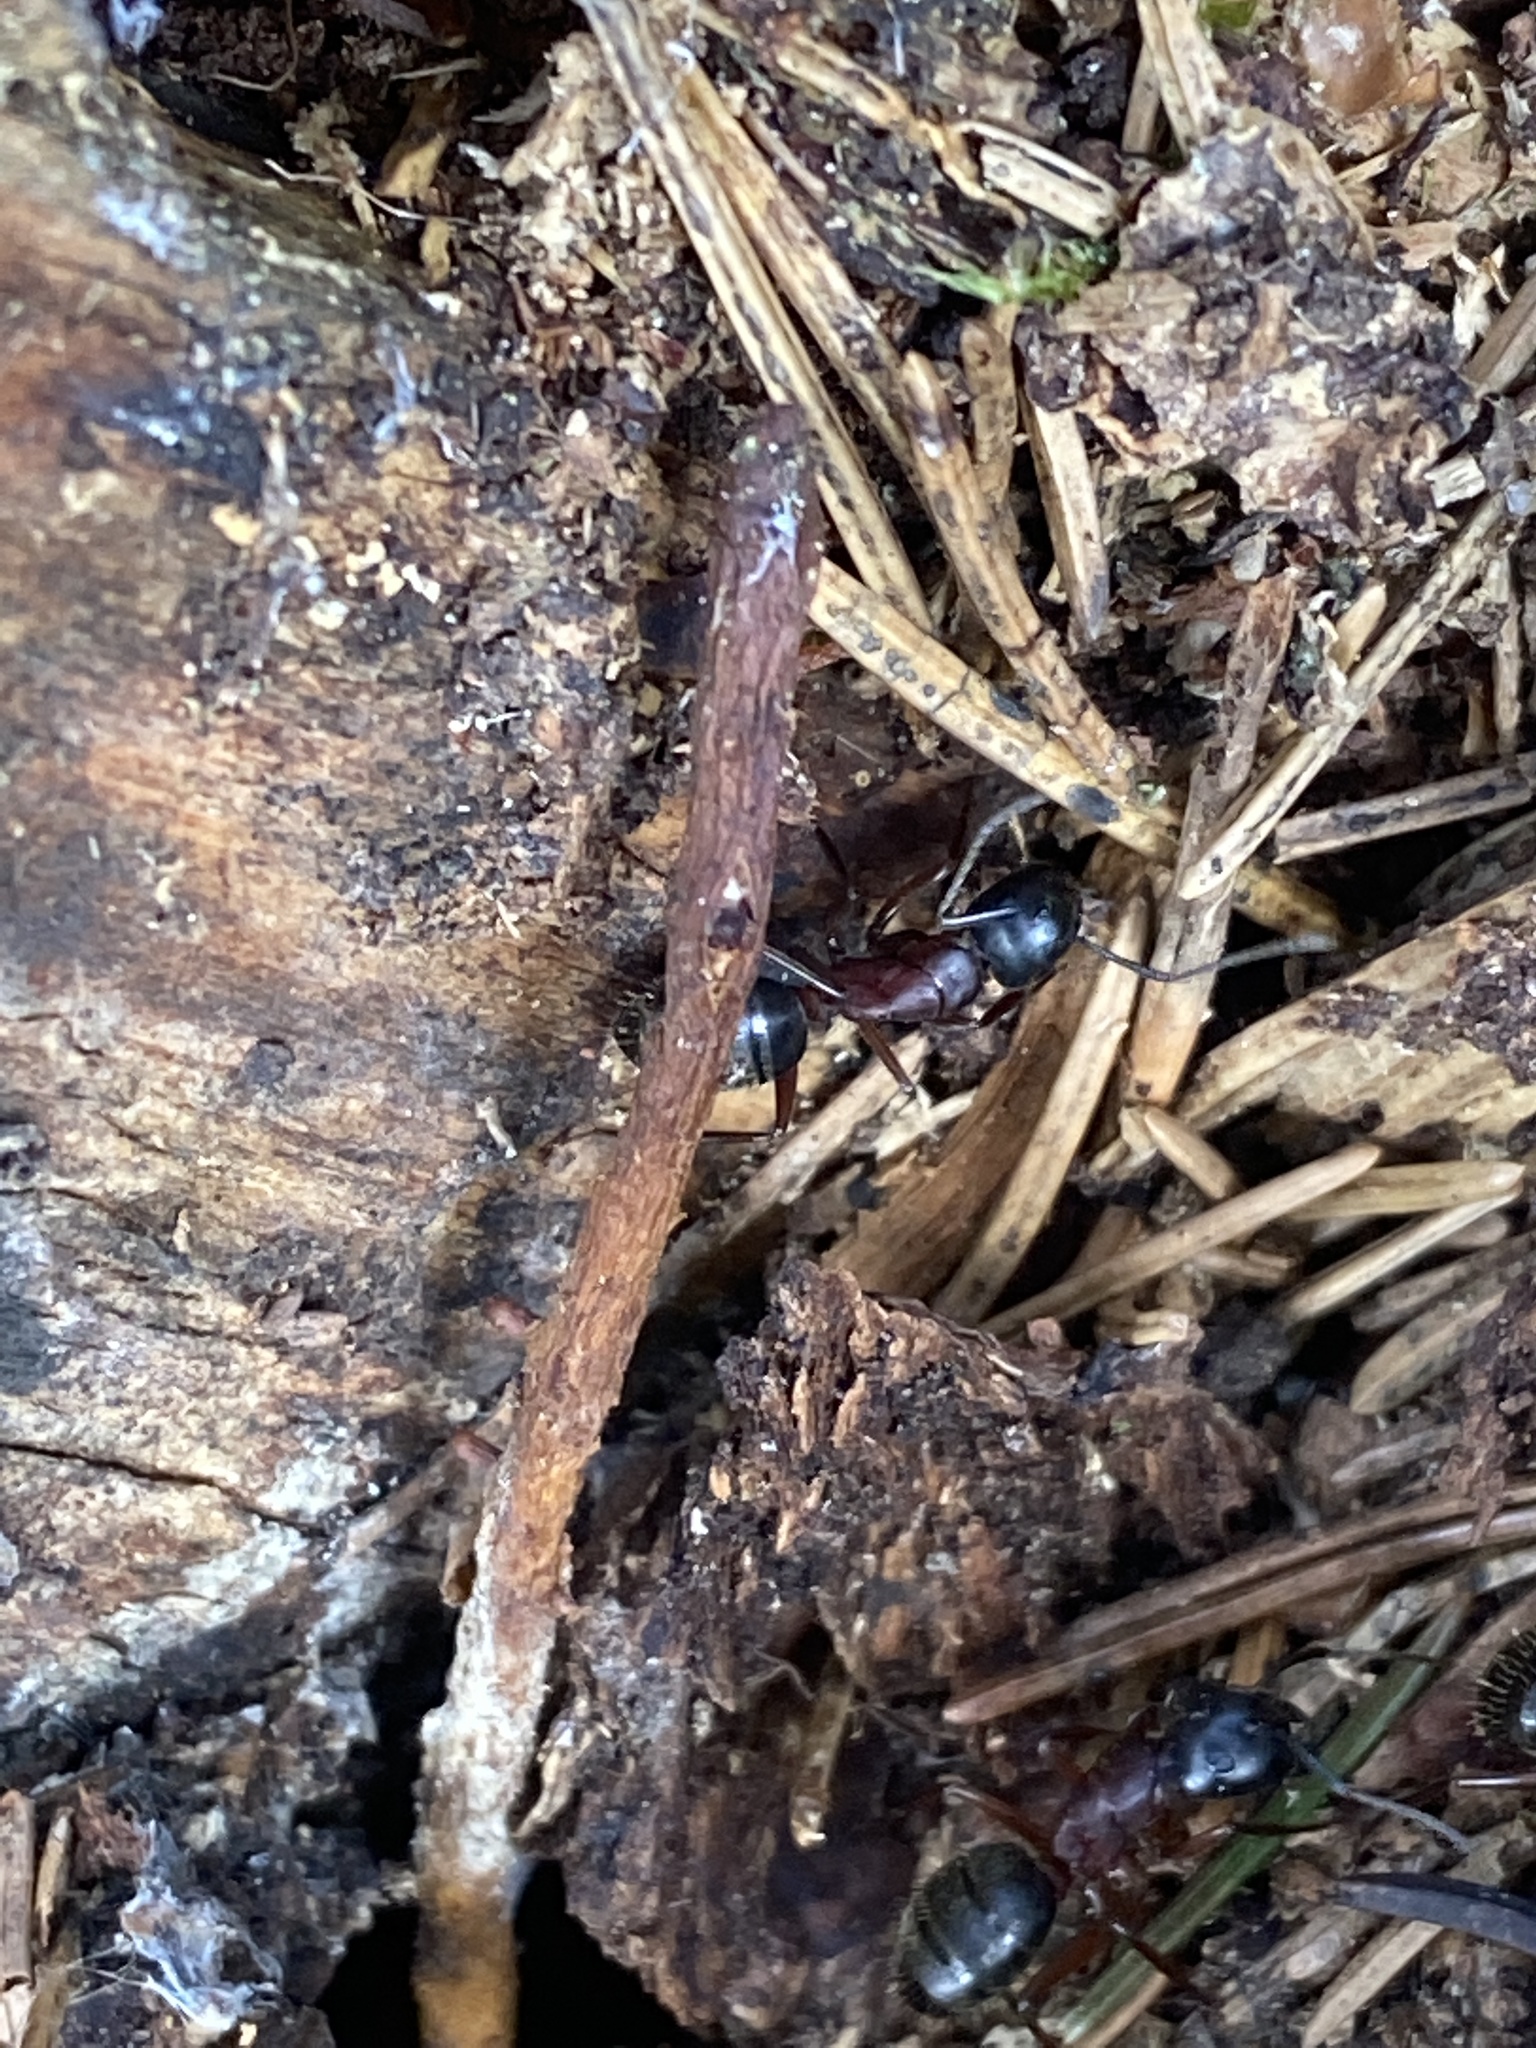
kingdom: Animalia
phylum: Arthropoda
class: Insecta
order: Hymenoptera
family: Formicidae
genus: Camponotus
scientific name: Camponotus ligniperdus
